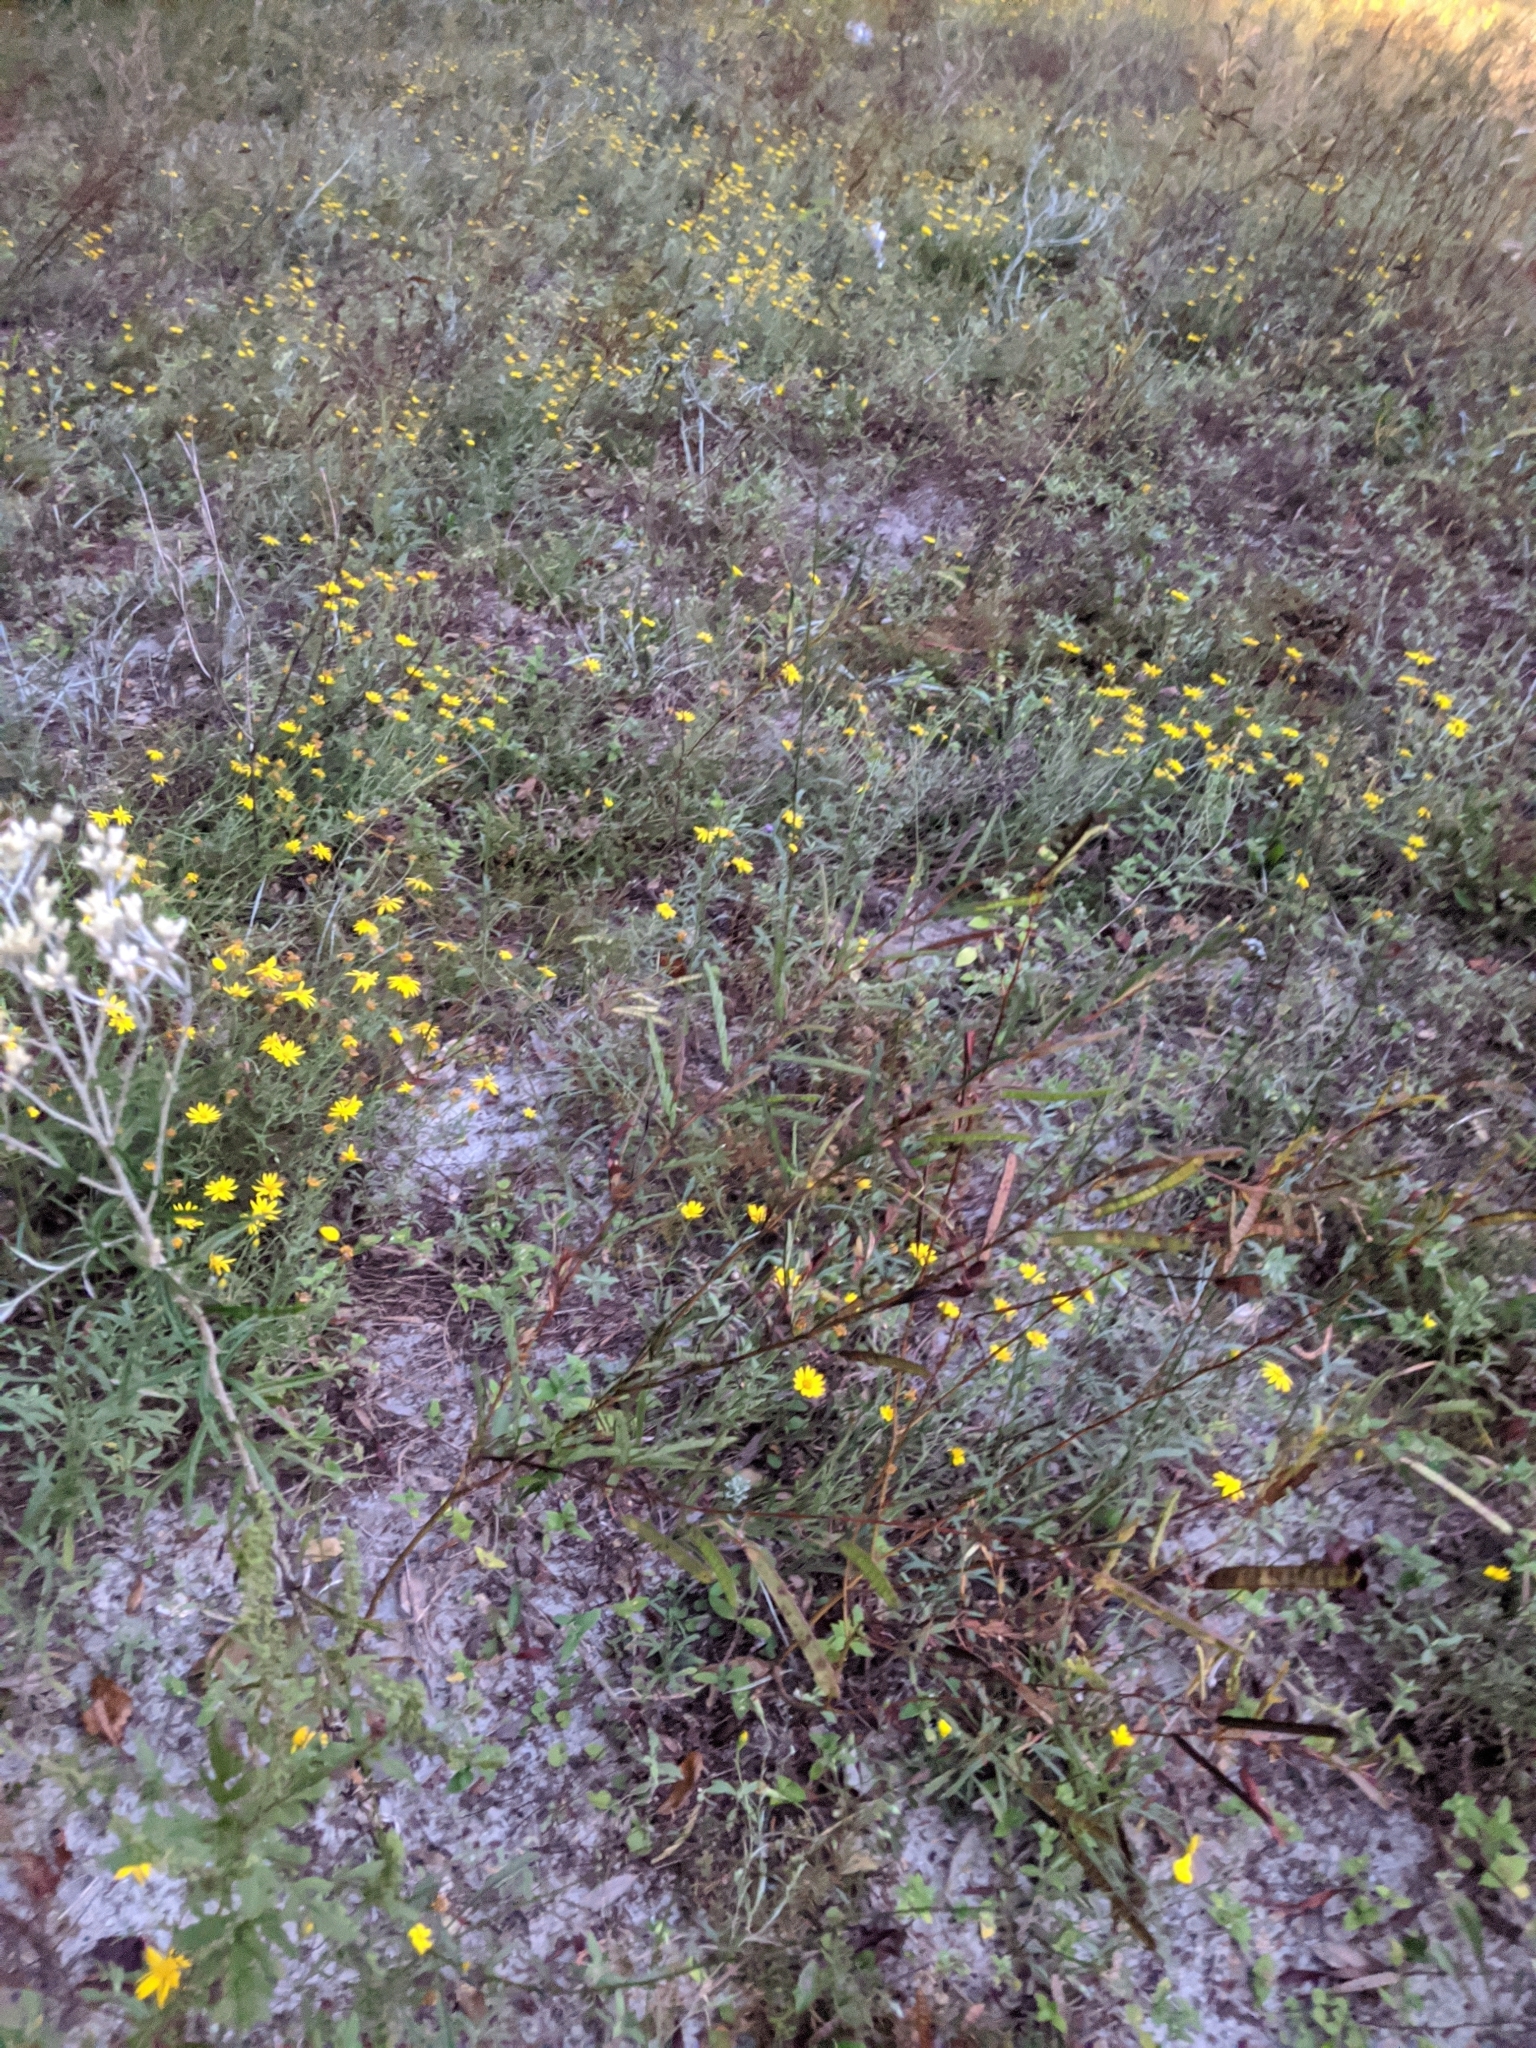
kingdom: Plantae
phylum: Tracheophyta
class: Magnoliopsida
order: Asterales
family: Asteraceae
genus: Pityopsis
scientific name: Pityopsis flexuosa
